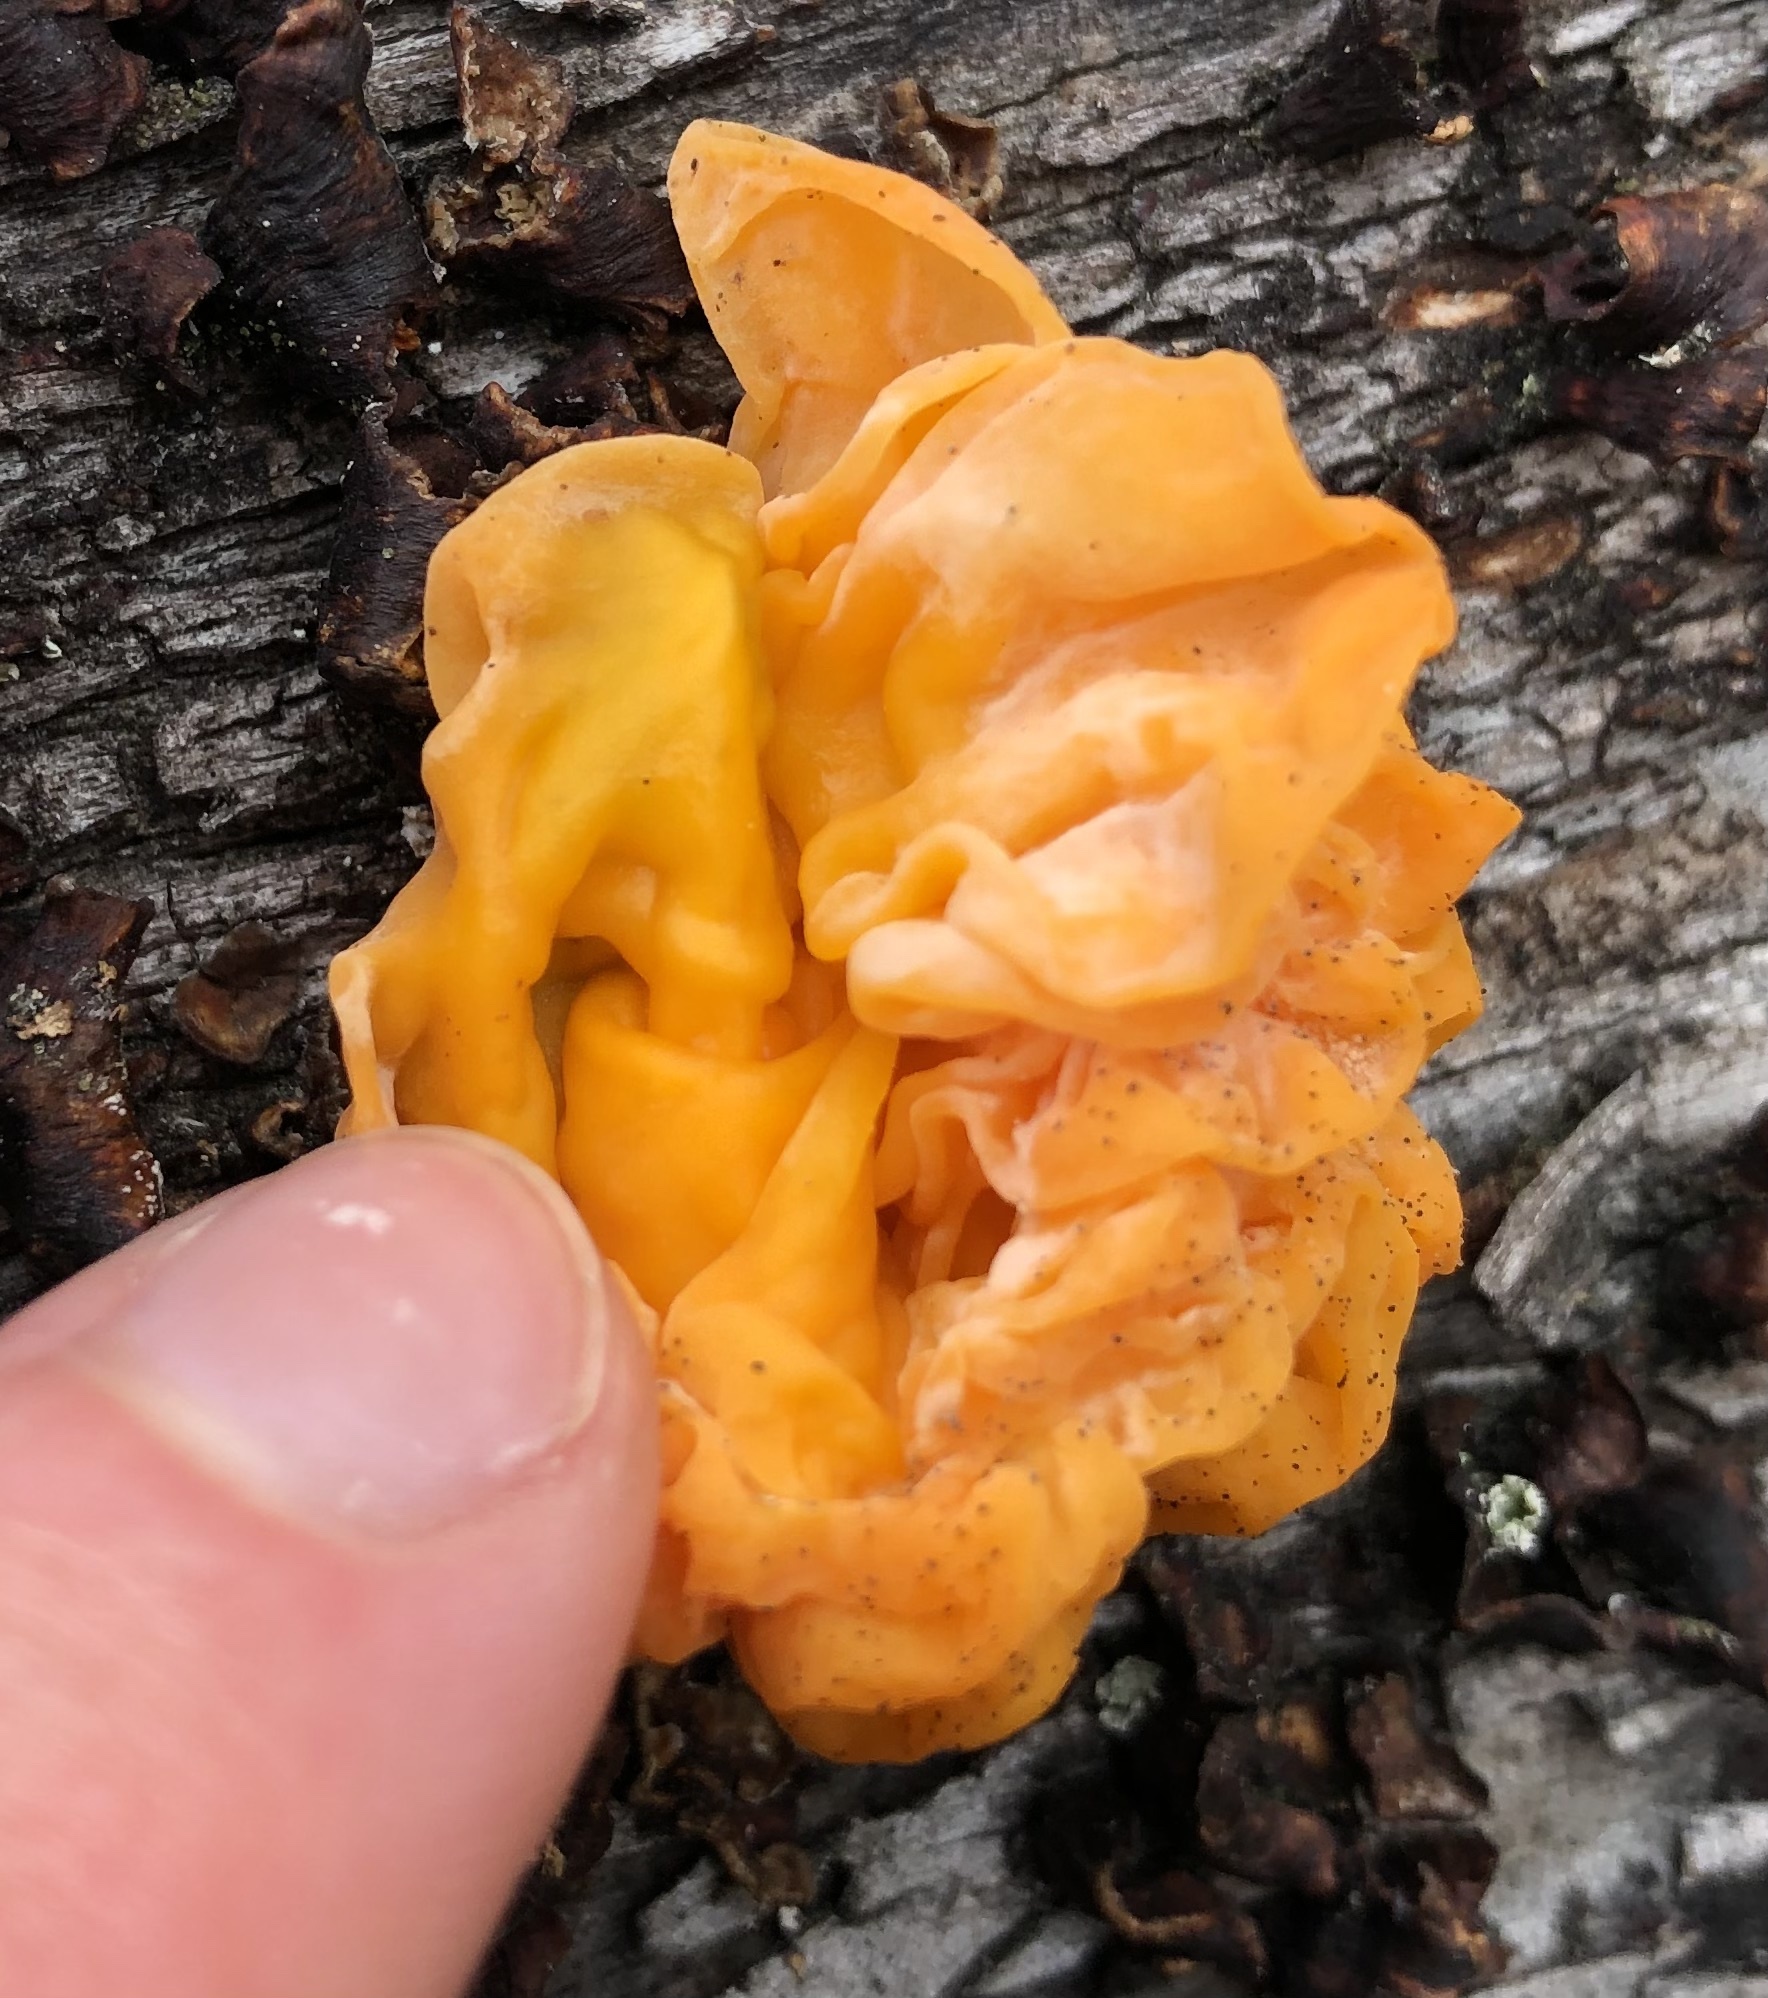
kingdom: Fungi
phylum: Basidiomycota
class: Tremellomycetes
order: Tremellales
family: Naemateliaceae
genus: Naematelia
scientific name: Naematelia aurantia
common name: Golden ear
